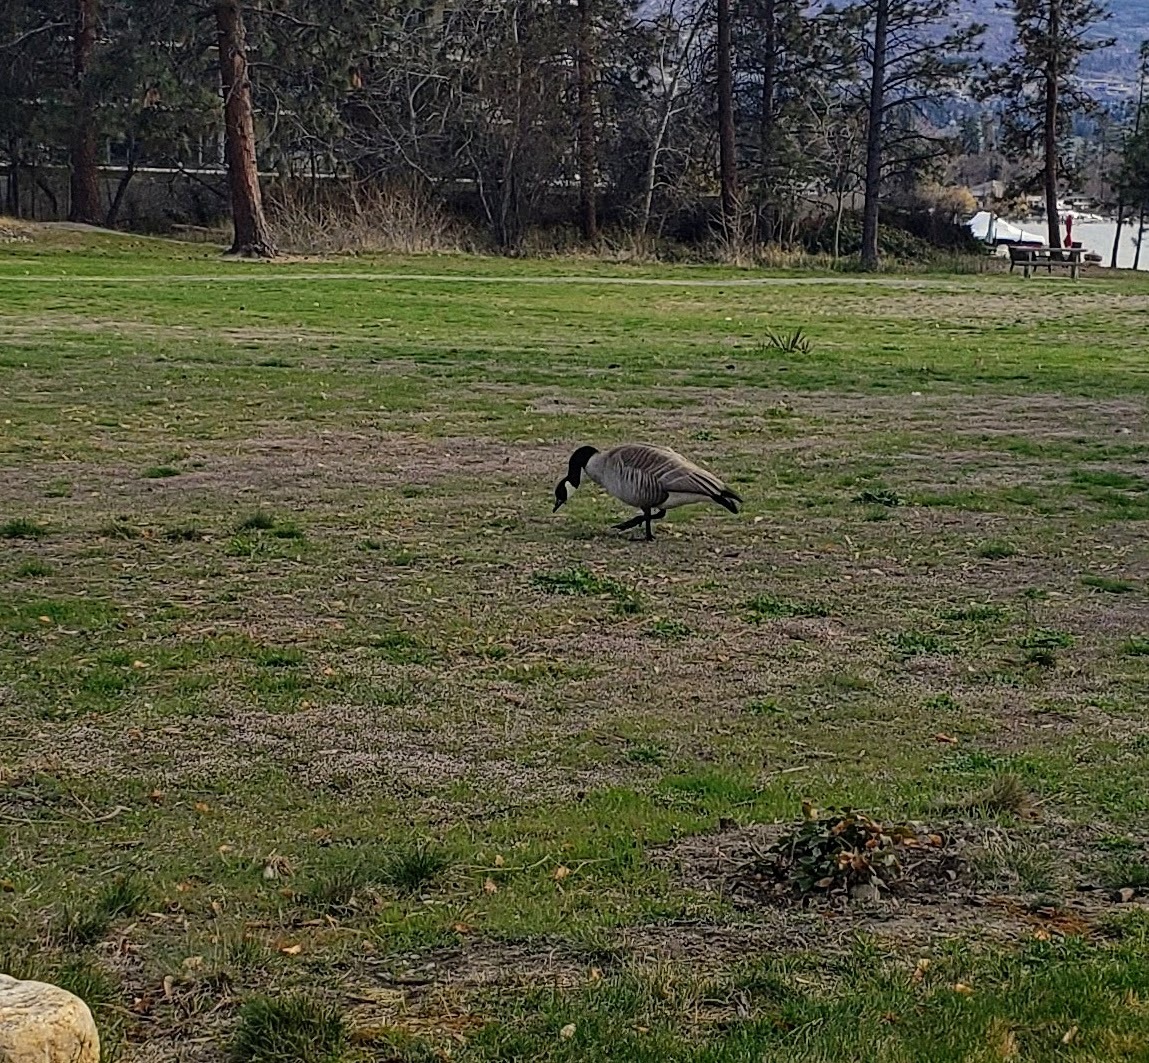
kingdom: Animalia
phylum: Chordata
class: Aves
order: Anseriformes
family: Anatidae
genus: Branta
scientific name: Branta canadensis
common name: Canada goose
